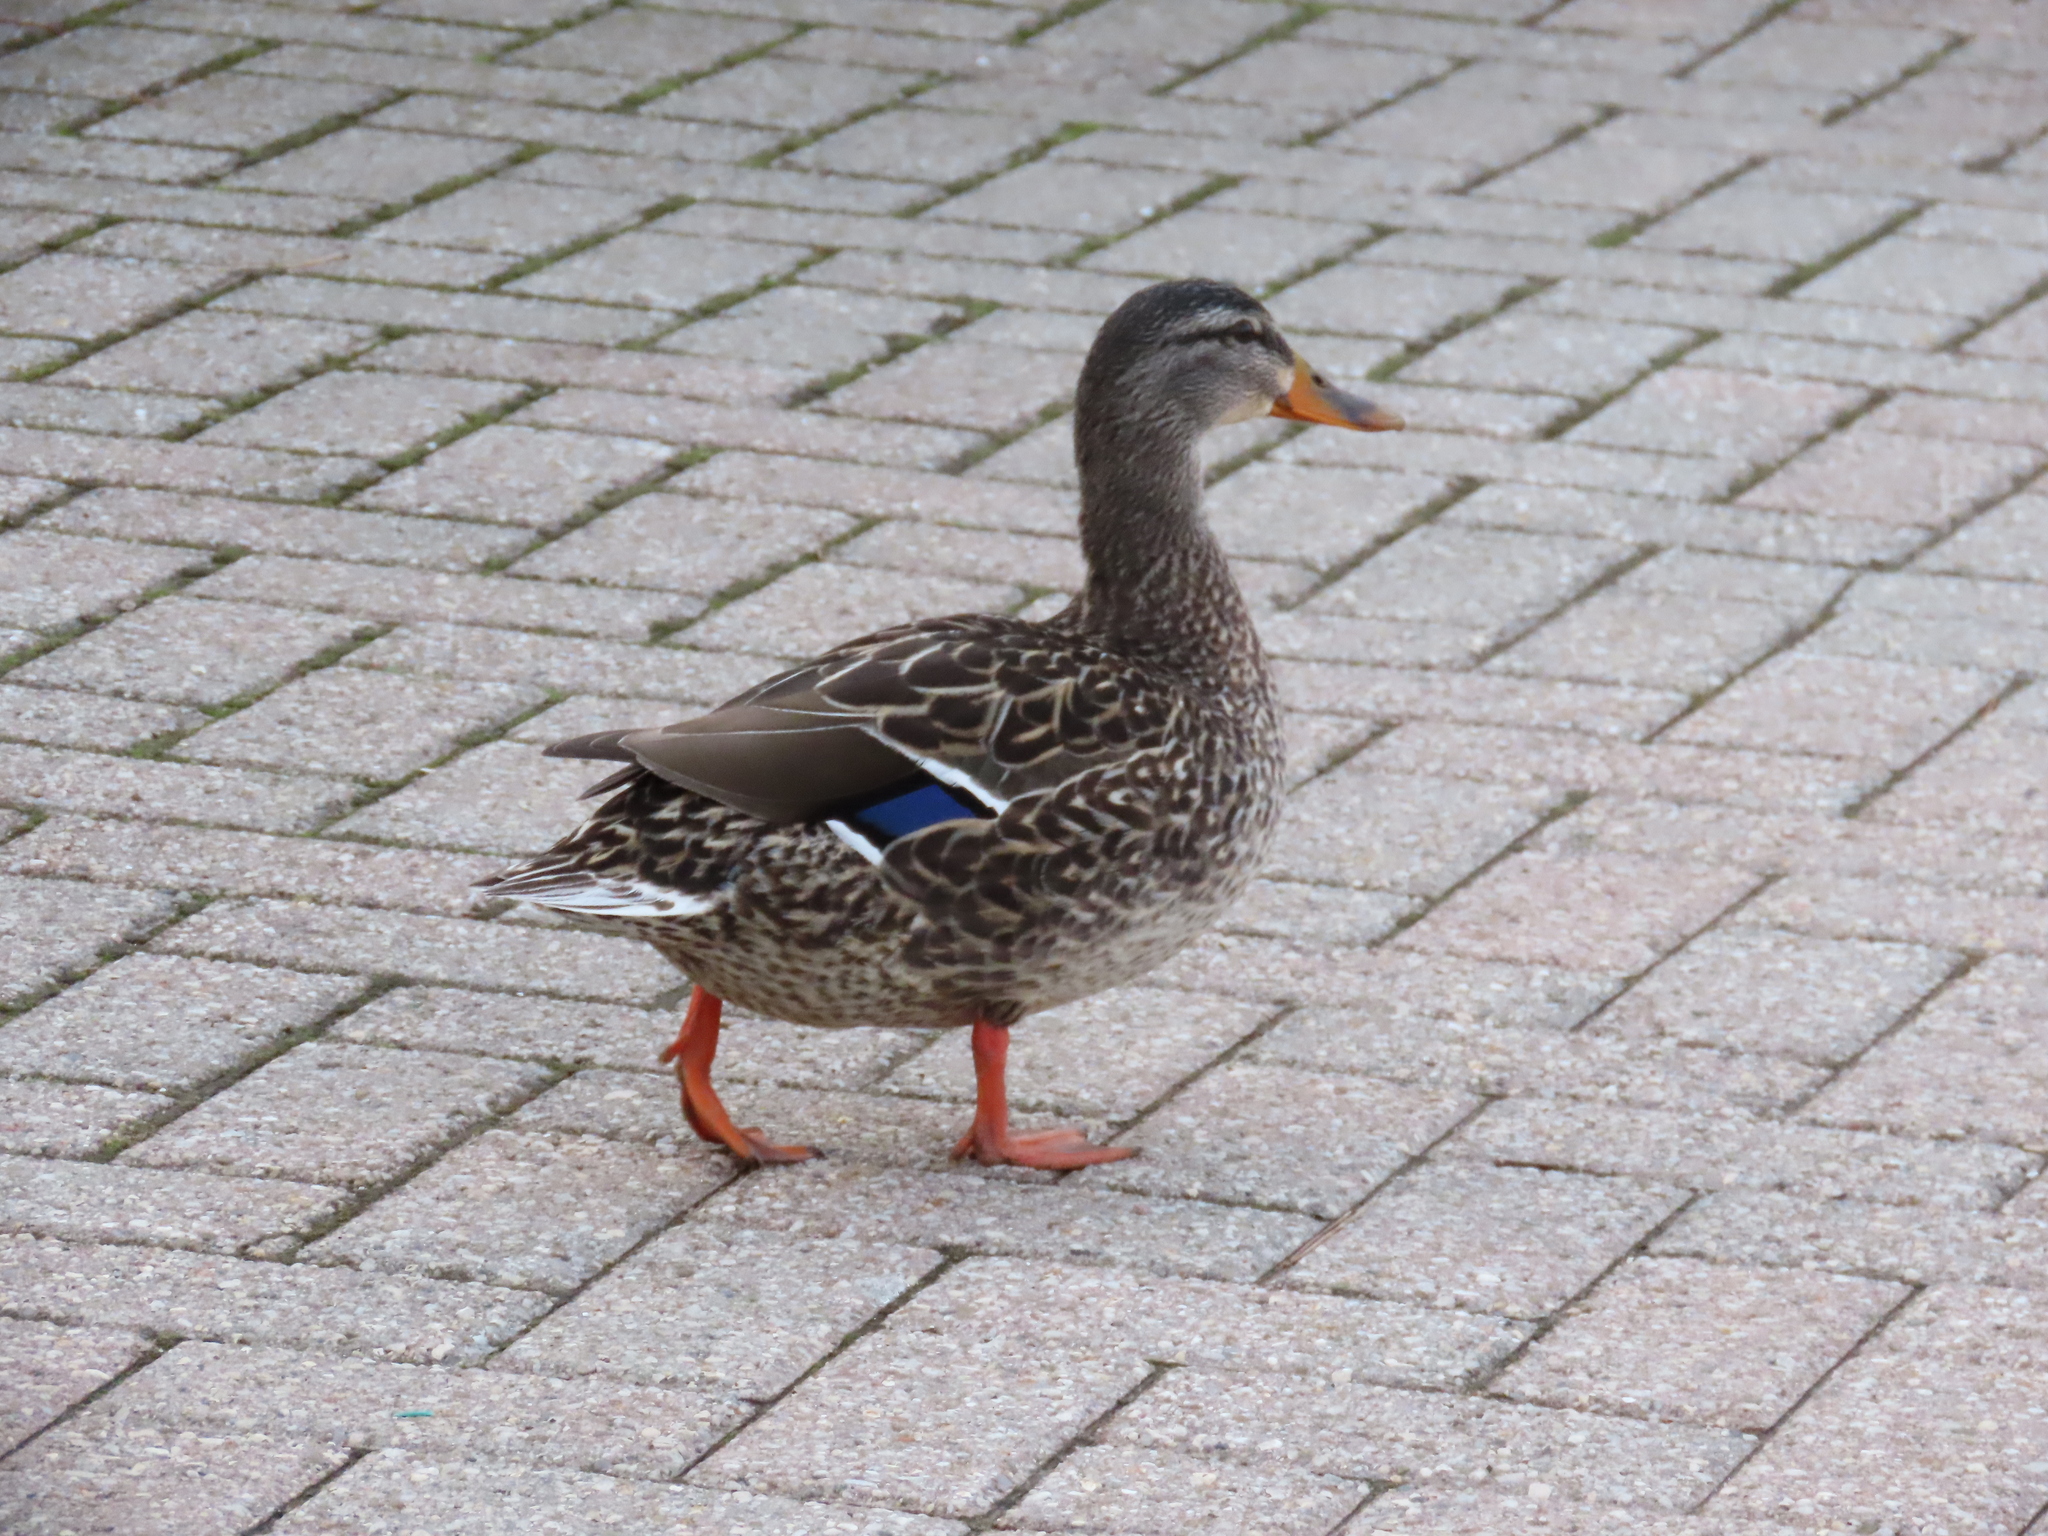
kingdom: Animalia
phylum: Chordata
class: Aves
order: Anseriformes
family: Anatidae
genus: Anas
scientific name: Anas platyrhynchos
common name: Mallard
